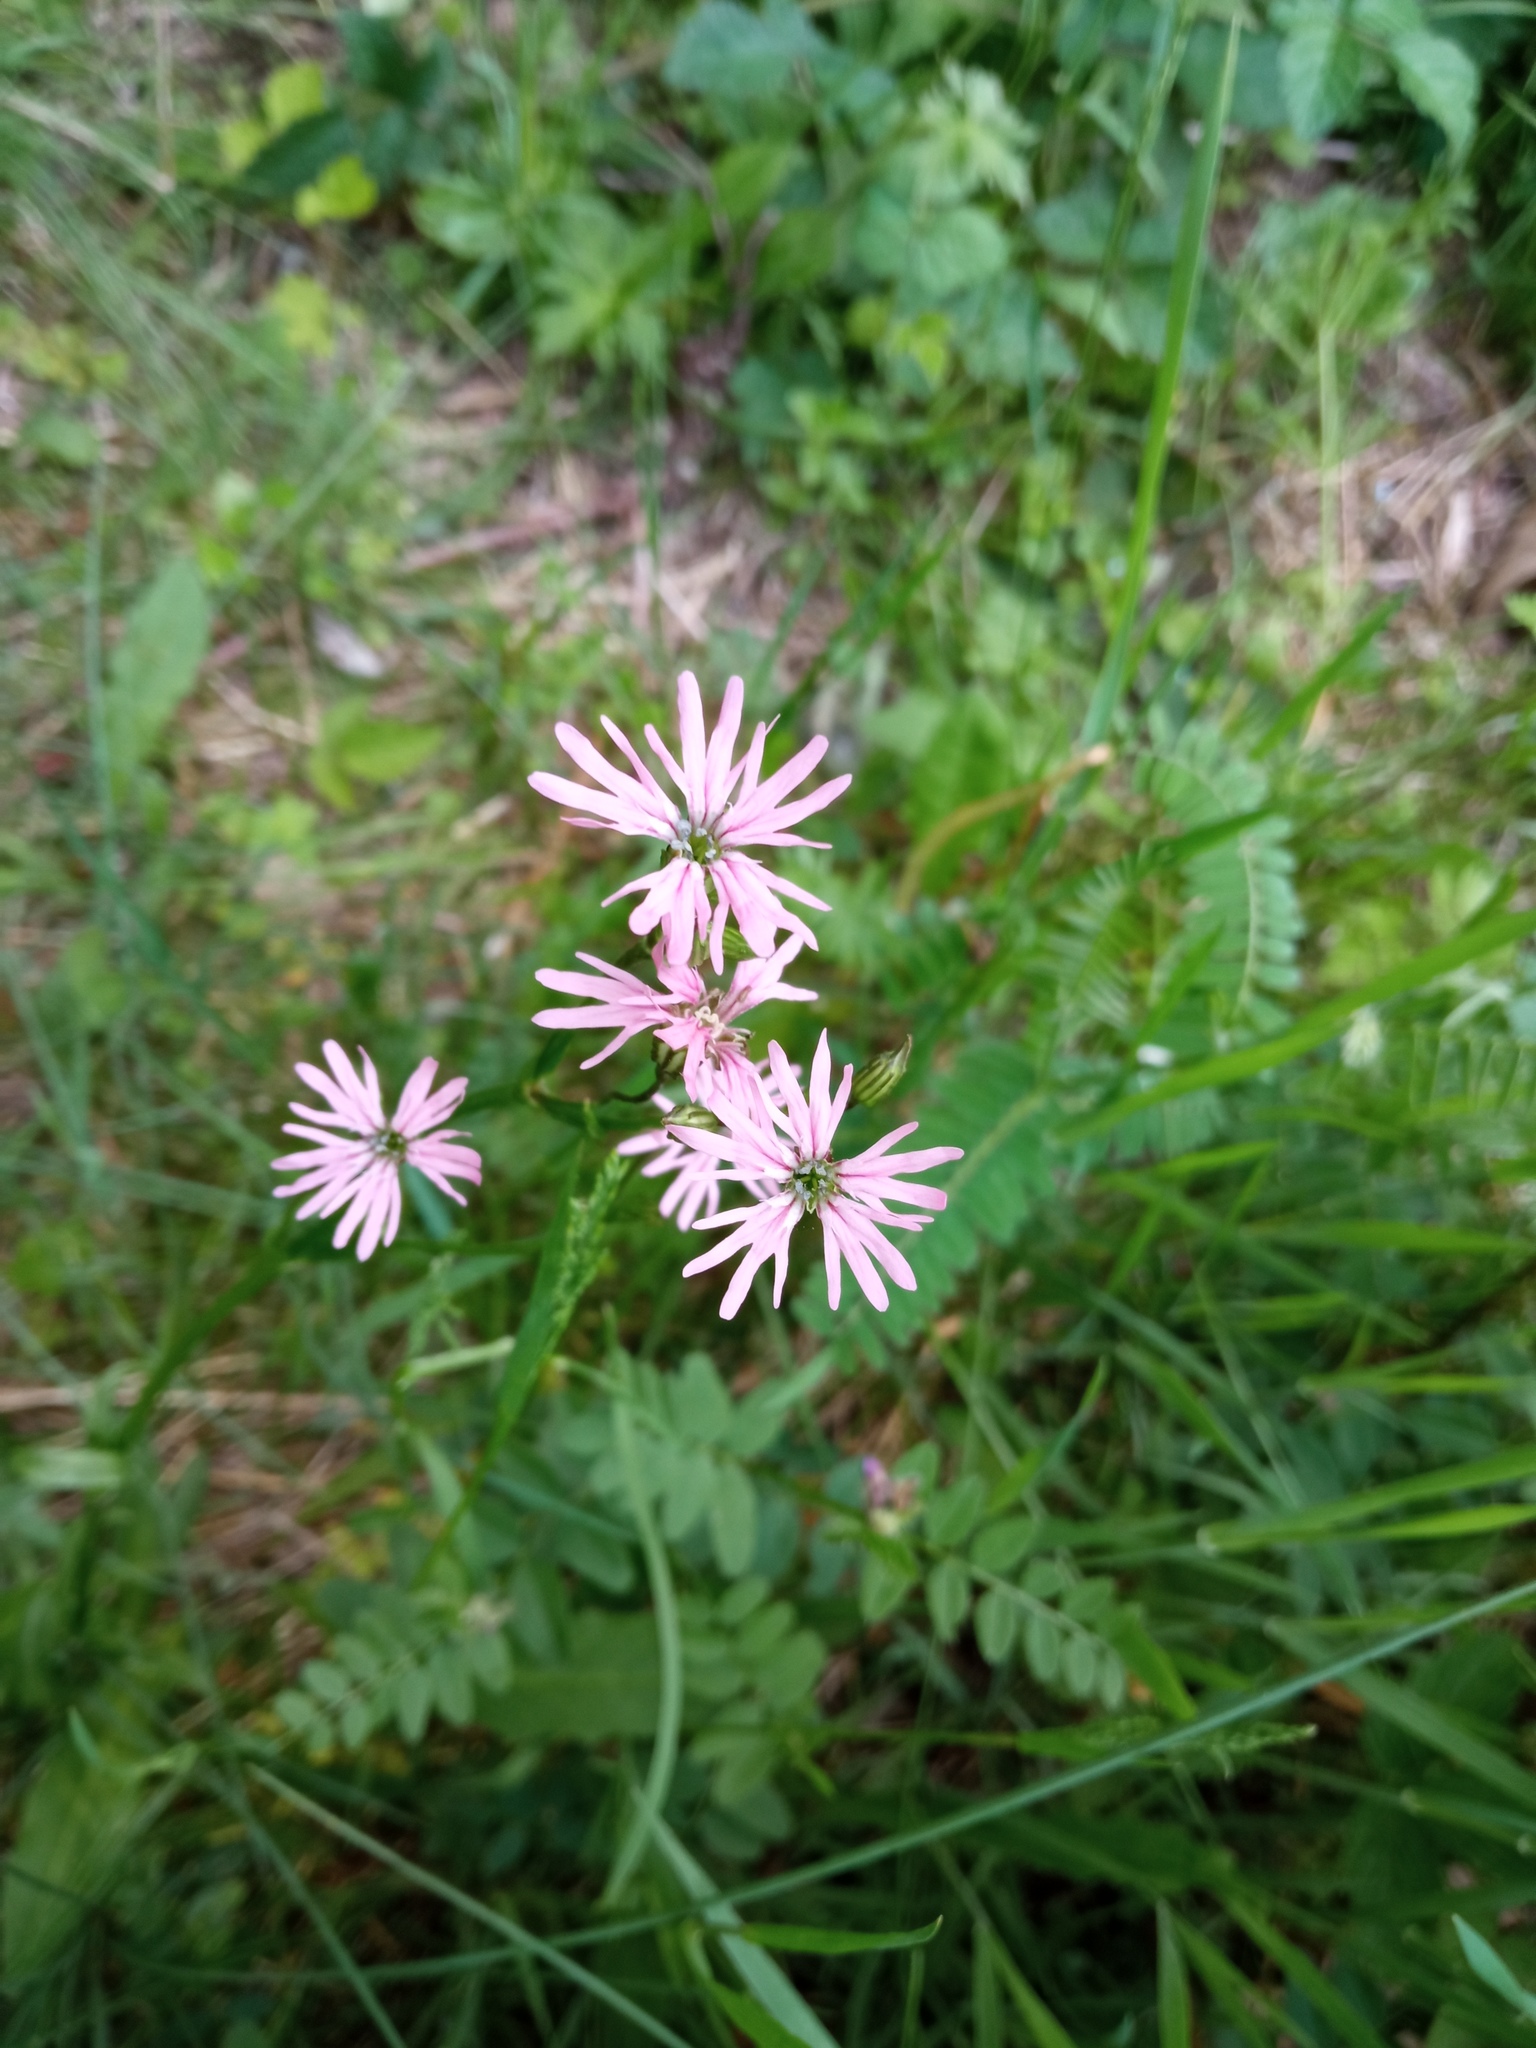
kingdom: Plantae
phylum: Tracheophyta
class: Magnoliopsida
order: Caryophyllales
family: Caryophyllaceae
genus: Silene
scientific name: Silene flos-cuculi
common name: Ragged-robin
